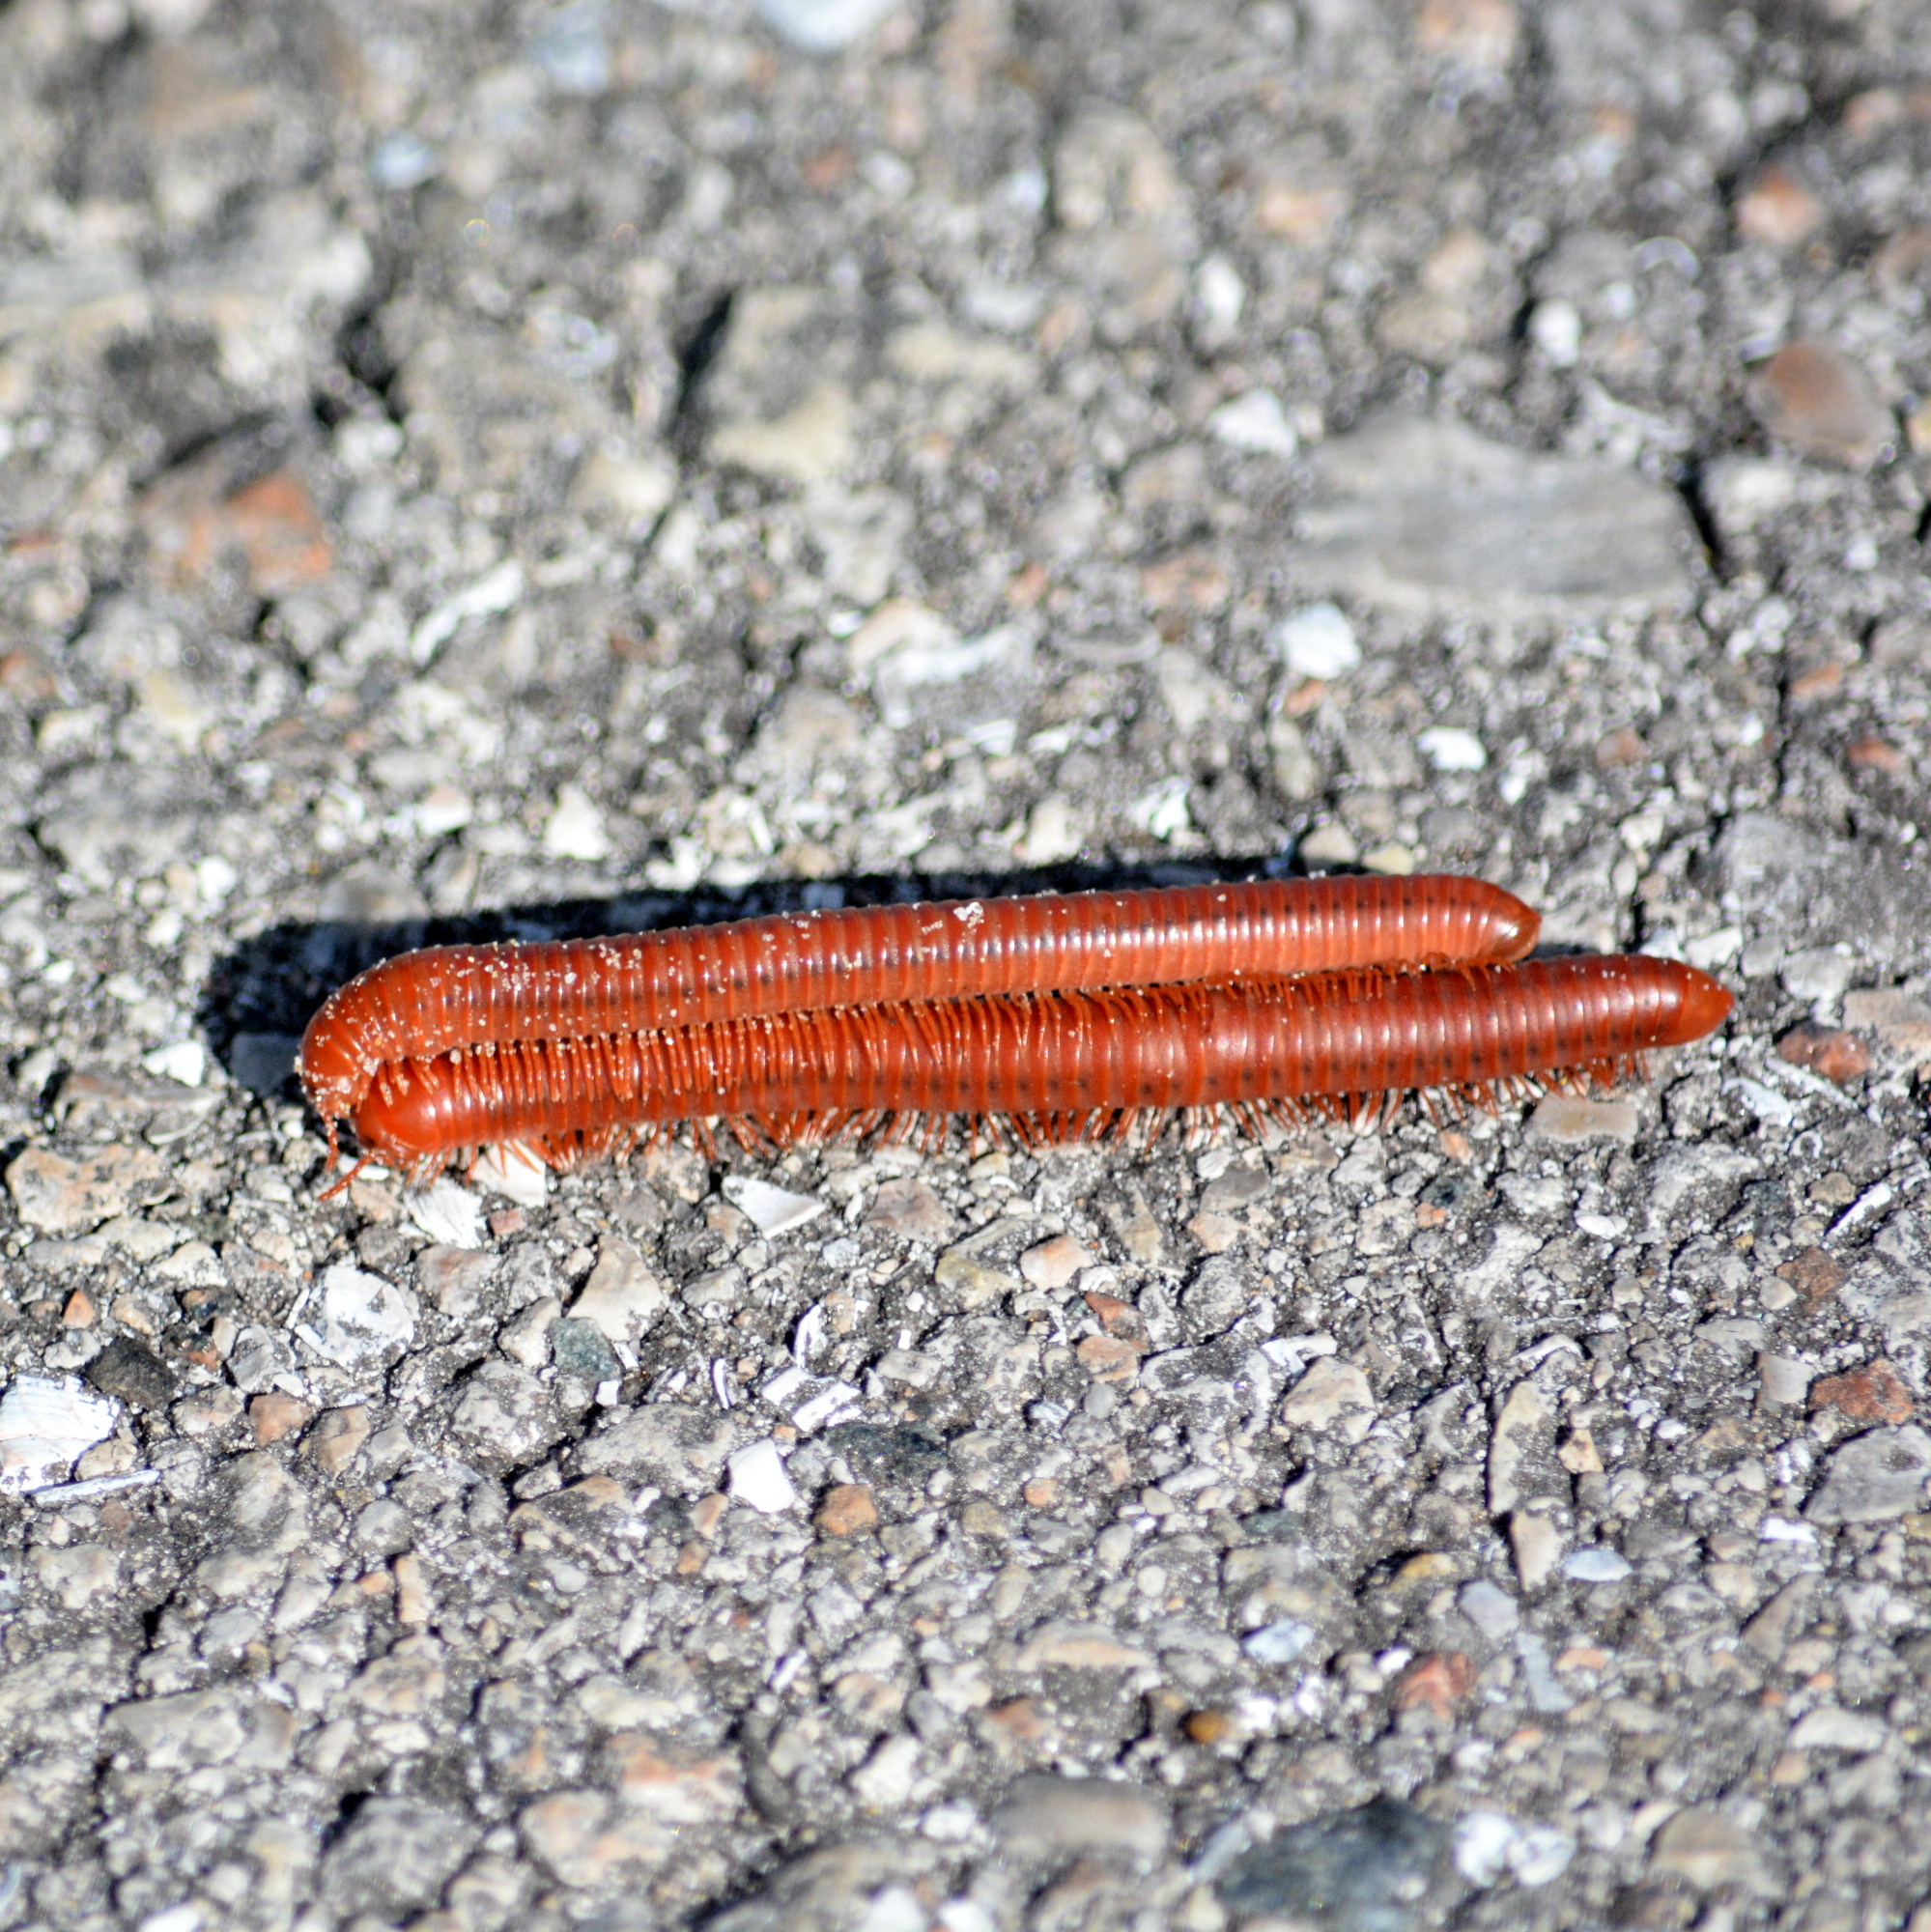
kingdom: Animalia
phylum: Arthropoda
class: Diplopoda
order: Spirobolida
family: Pachybolidae
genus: Trigoniulus
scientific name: Trigoniulus corallinus
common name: Millipede
